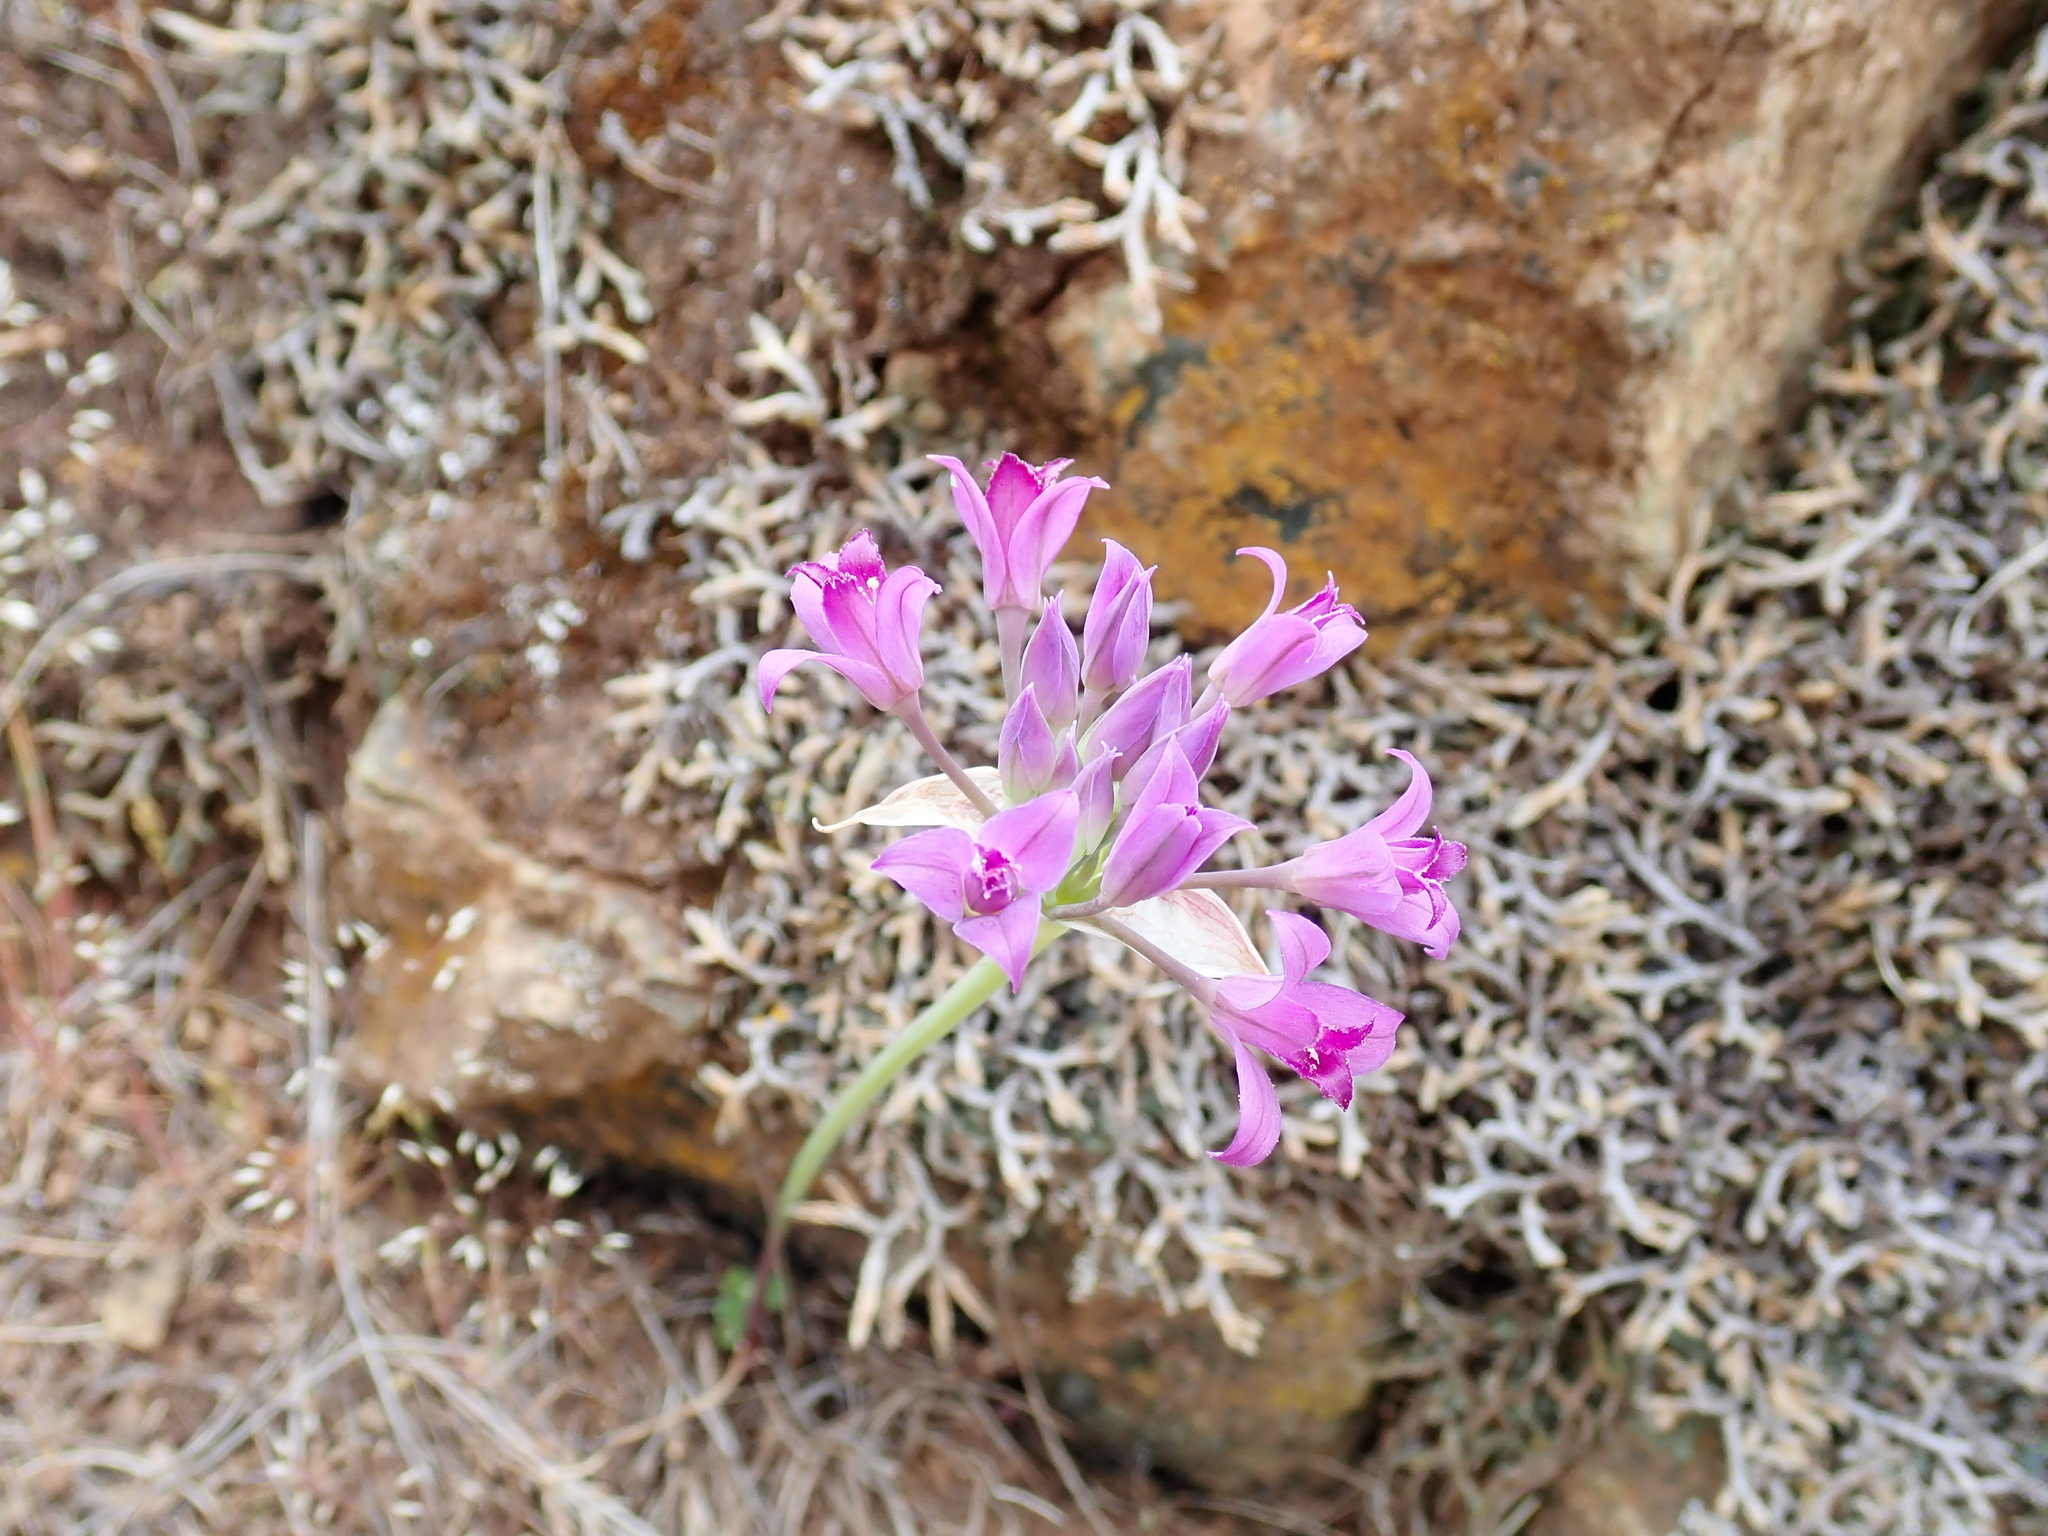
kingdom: Plantae
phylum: Tracheophyta
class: Liliopsida
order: Asparagales
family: Amaryllidaceae
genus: Allium
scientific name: Allium acuminatum
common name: Hooker's onion
